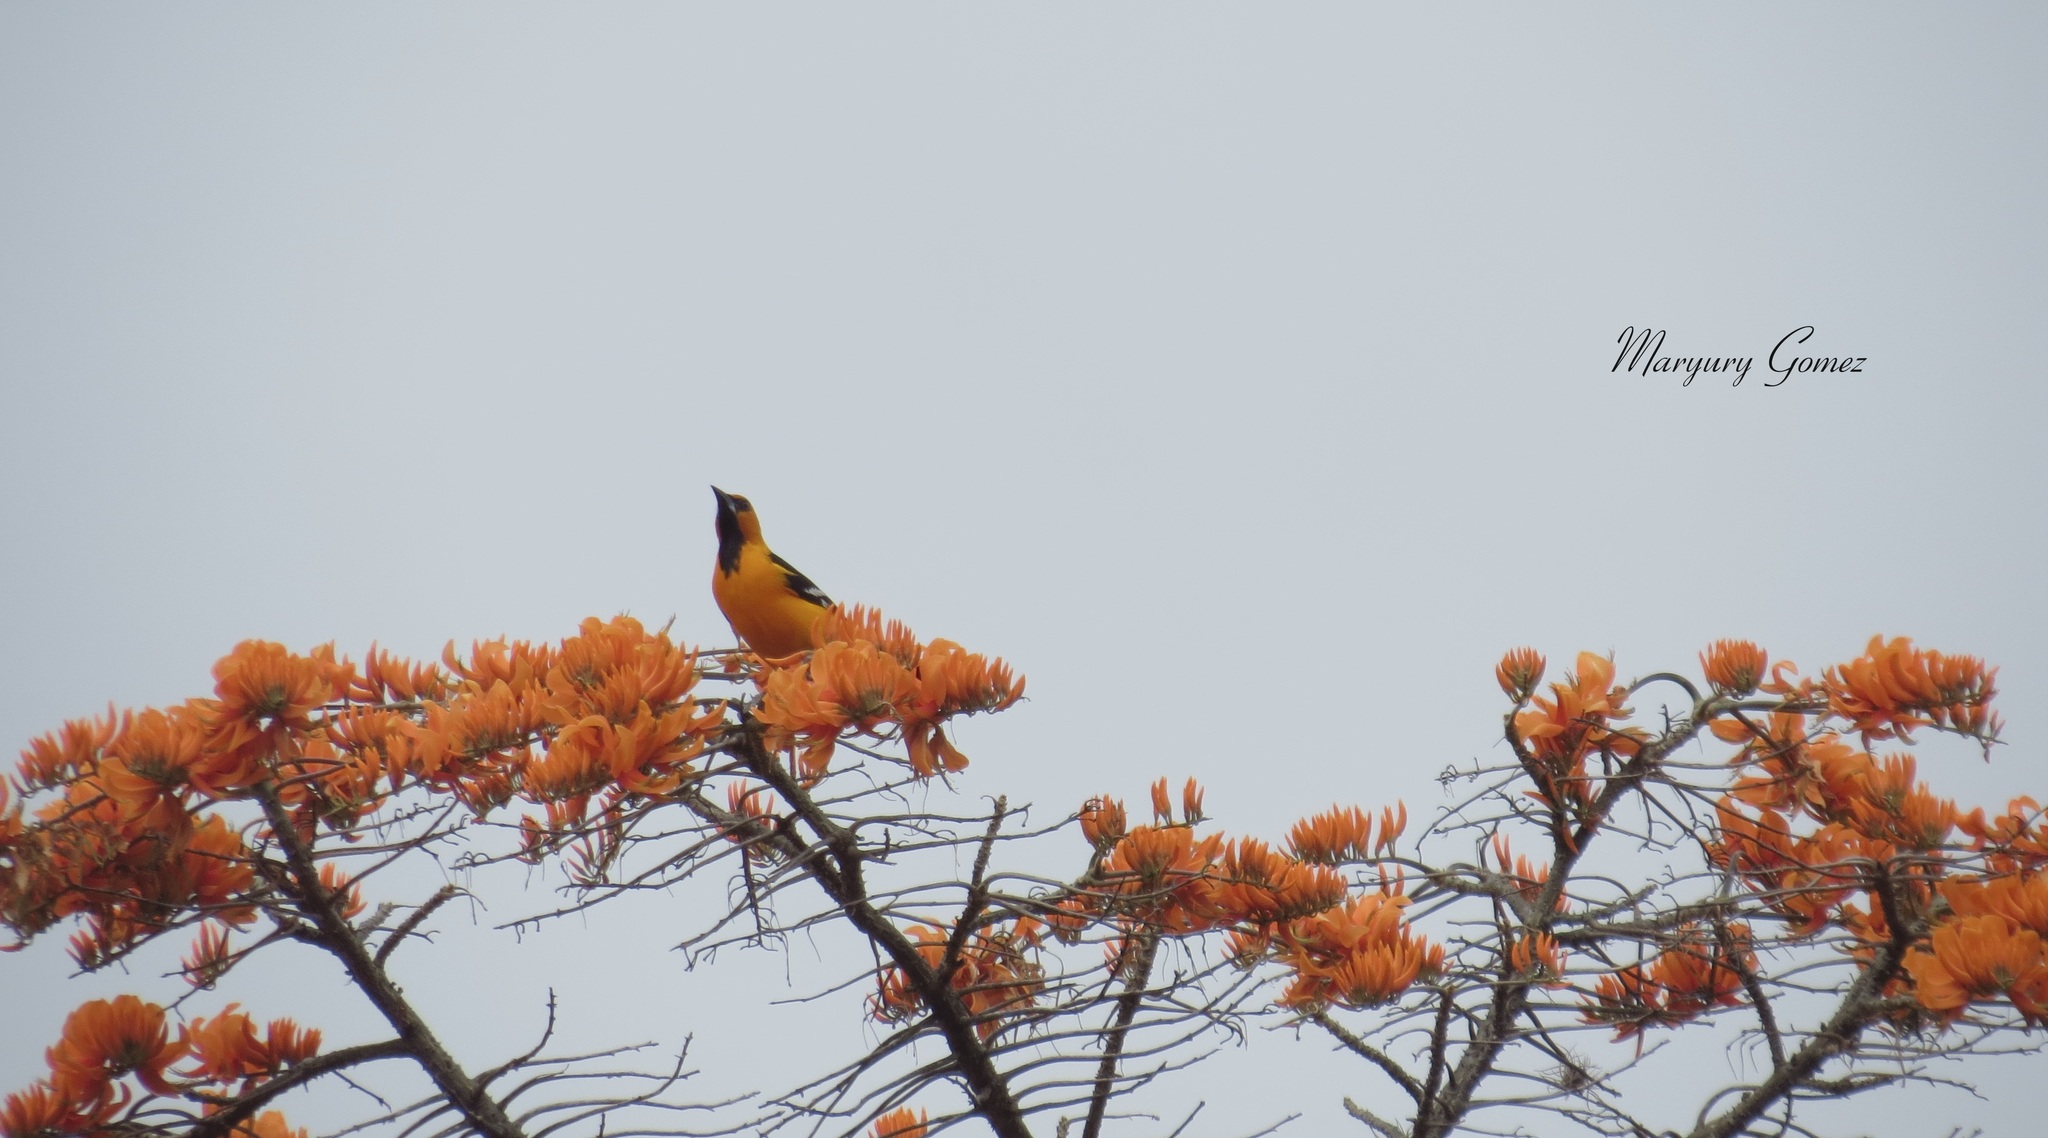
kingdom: Animalia
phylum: Chordata
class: Aves
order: Passeriformes
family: Icteridae
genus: Icterus
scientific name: Icterus gularis
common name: Altamira oriole
